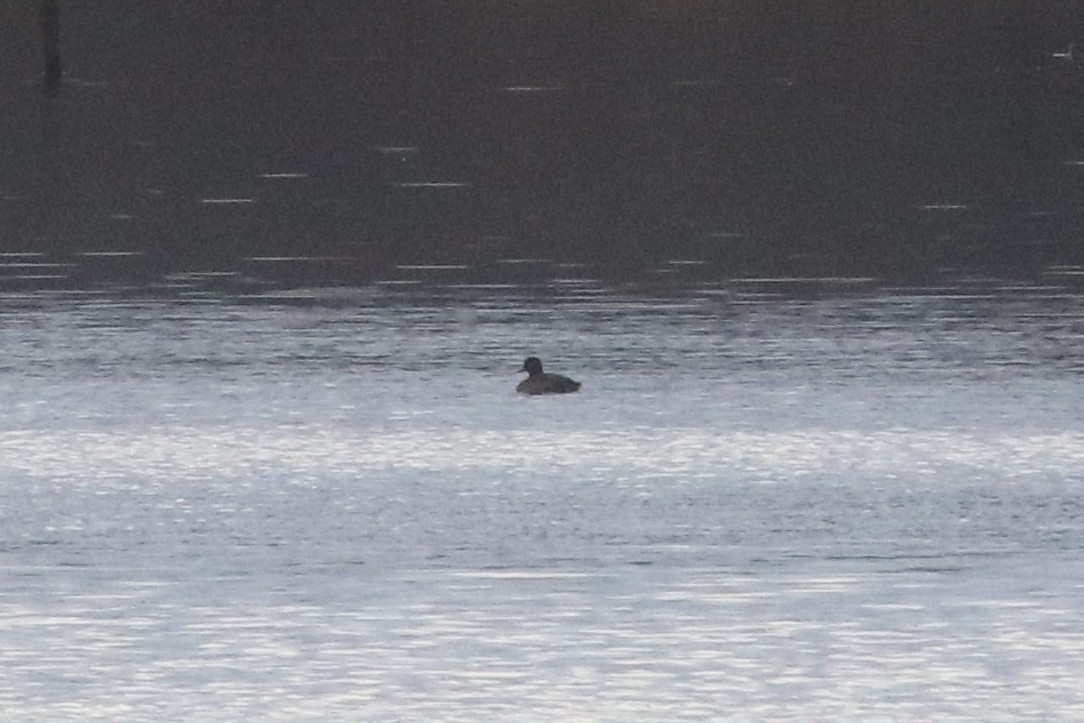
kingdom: Animalia
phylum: Chordata
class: Aves
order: Anseriformes
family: Anatidae
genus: Aythya
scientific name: Aythya fuligula
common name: Tufted duck
